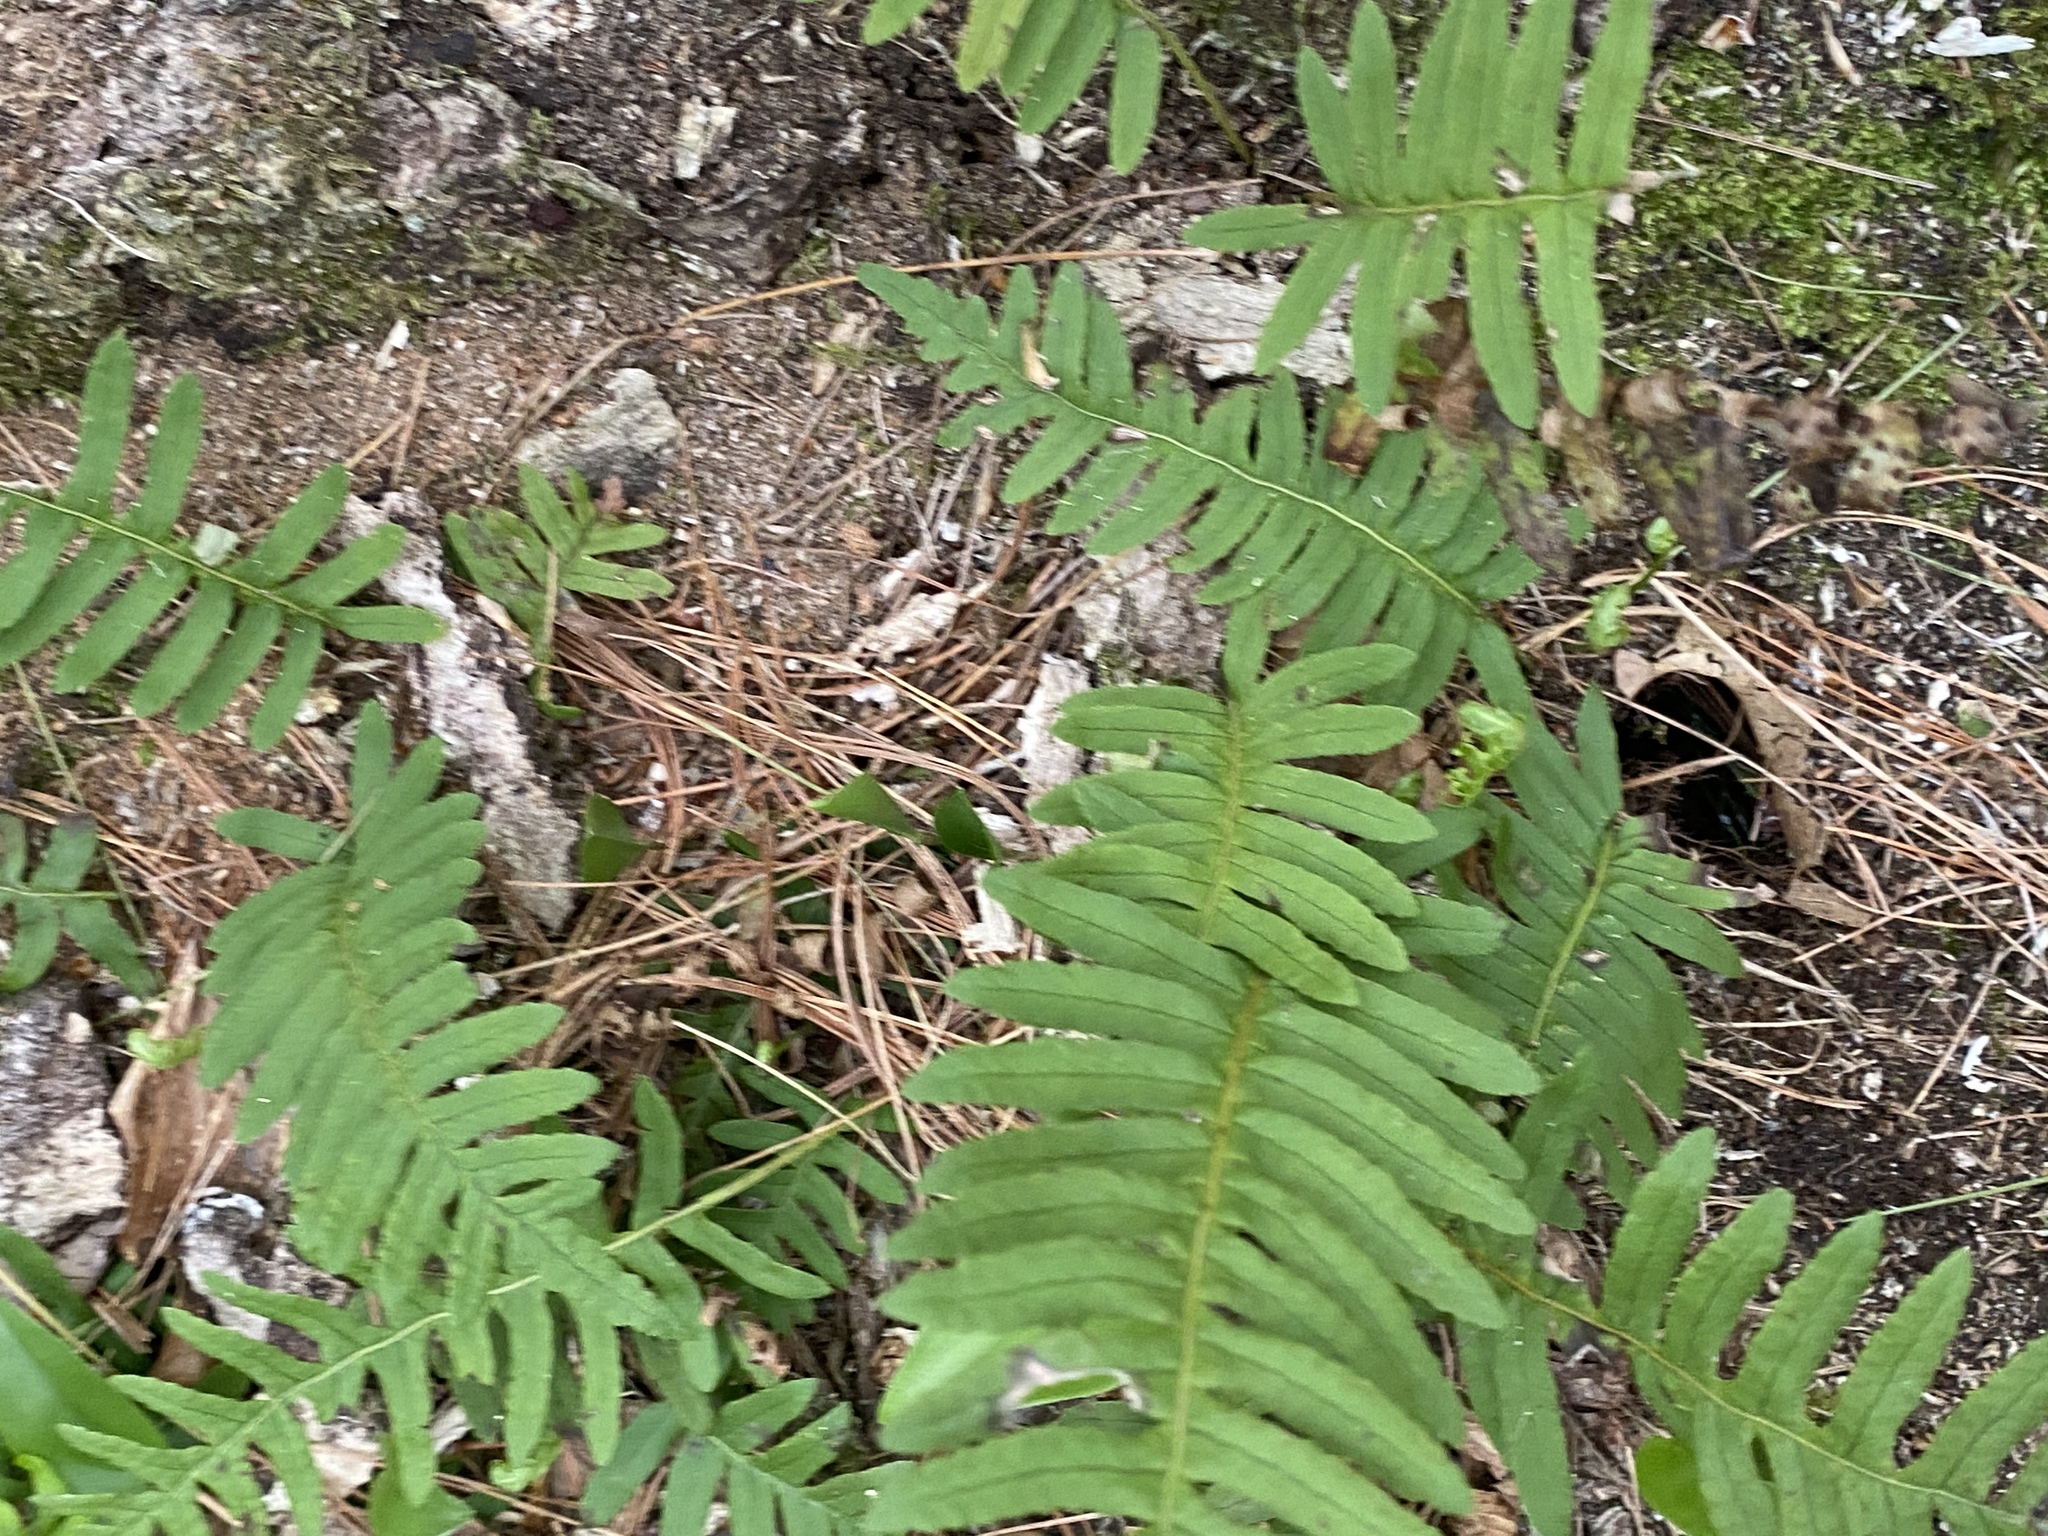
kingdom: Plantae
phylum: Tracheophyta
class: Polypodiopsida
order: Polypodiales
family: Polypodiaceae
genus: Polypodium
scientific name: Polypodium virginianum
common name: American wall fern
